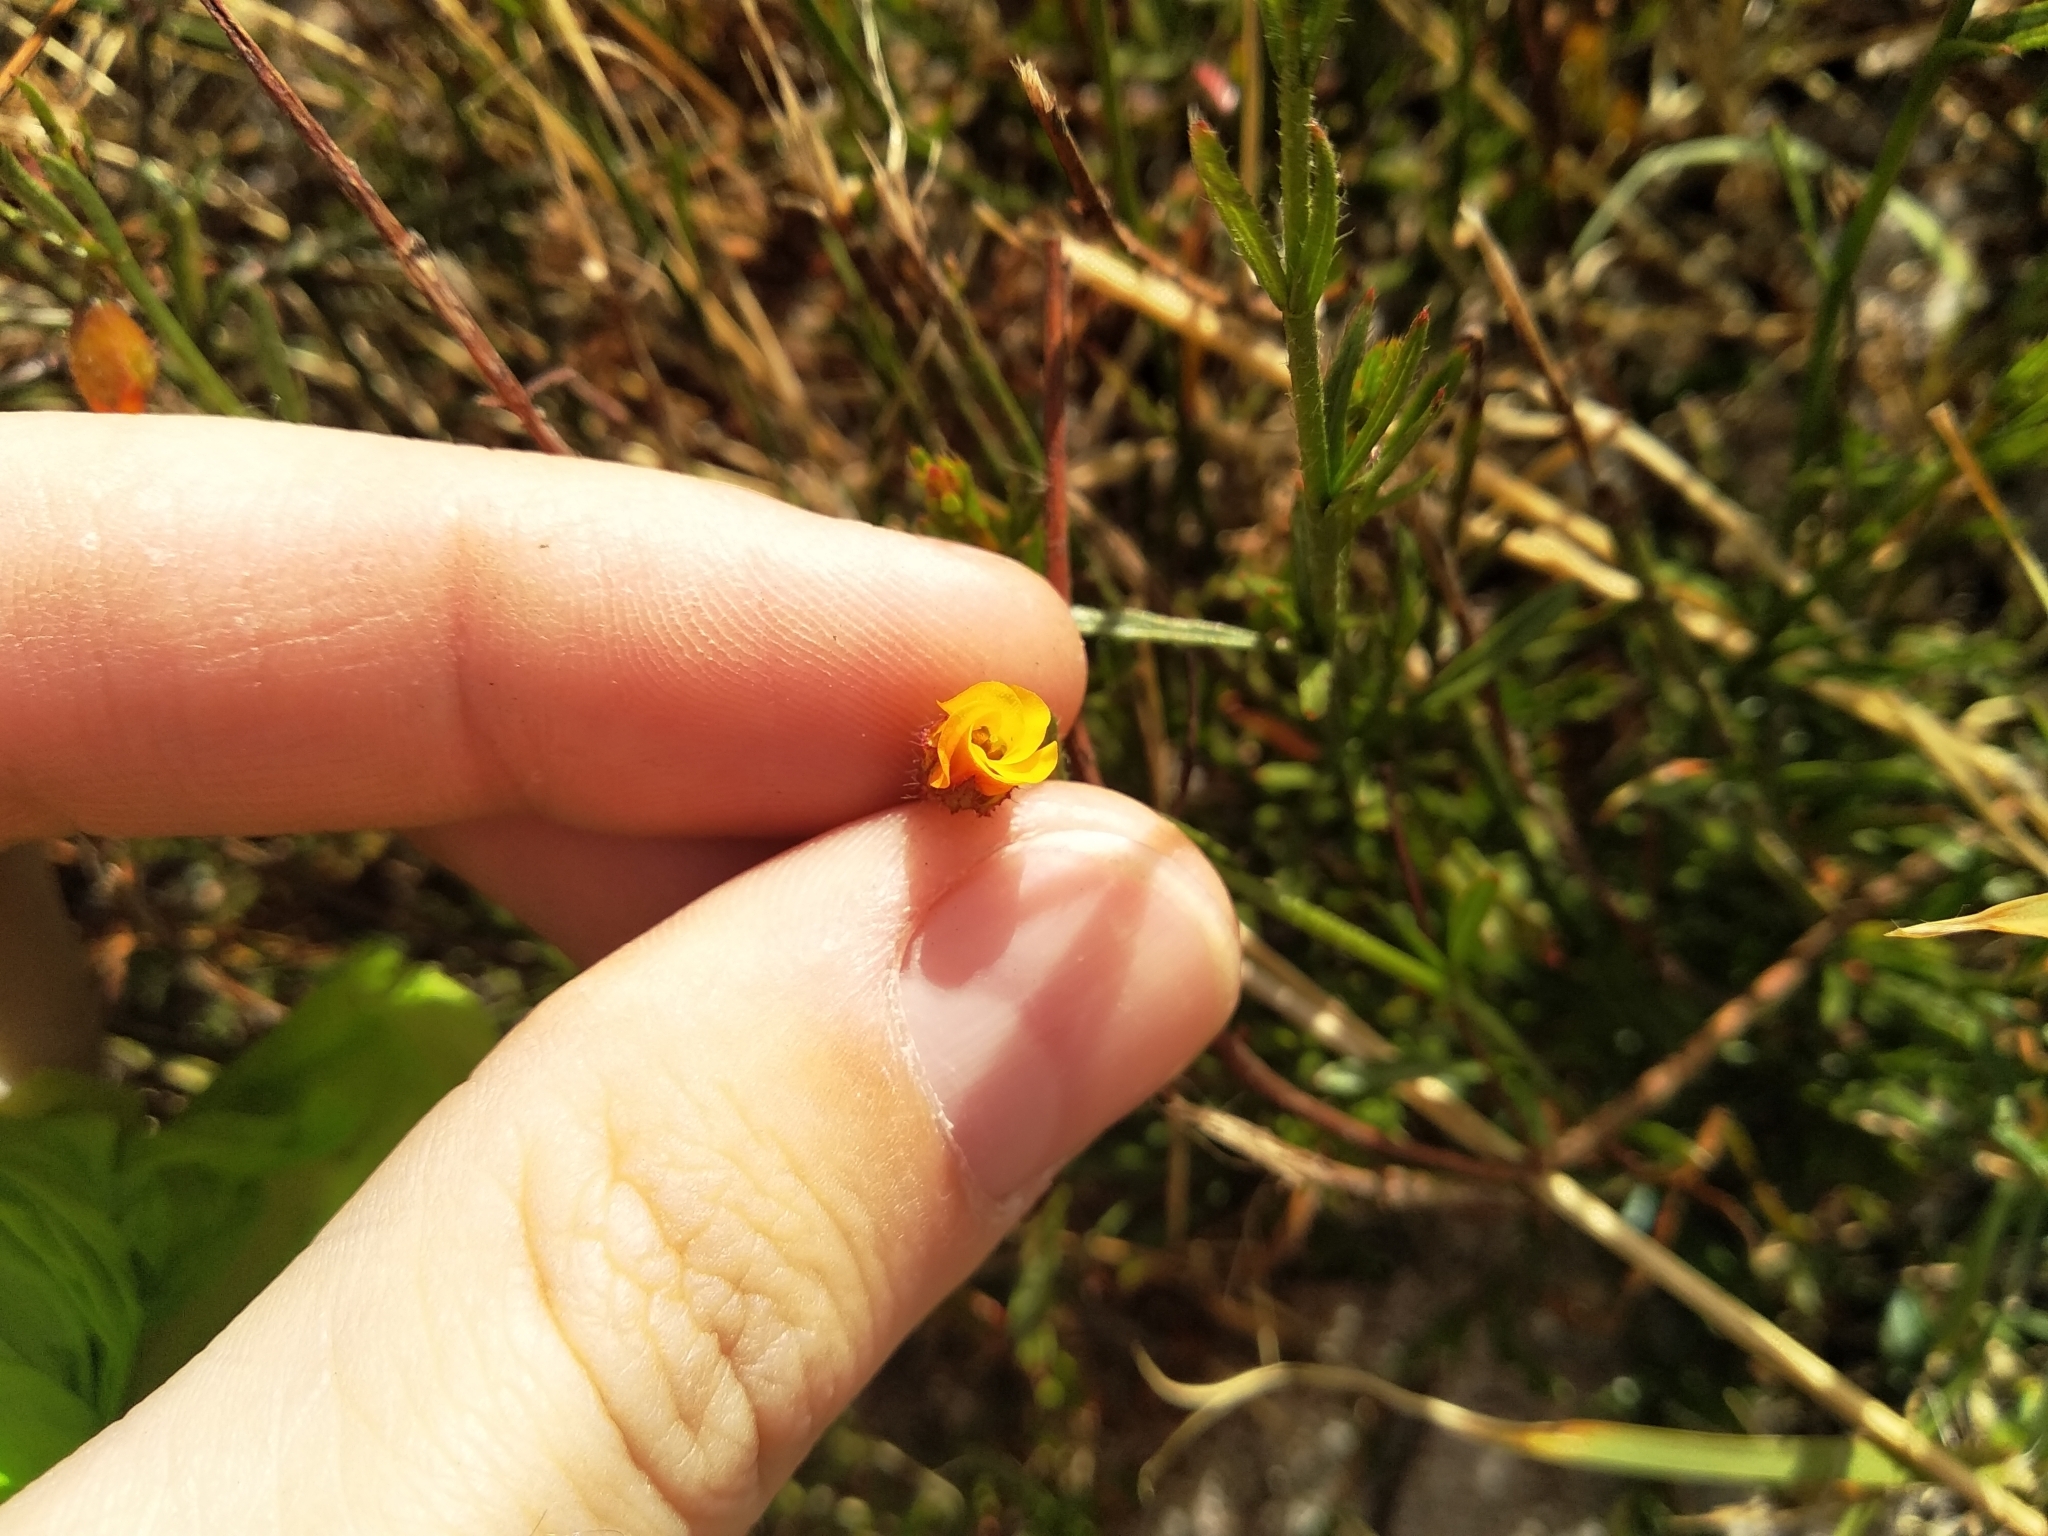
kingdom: Plantae
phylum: Tracheophyta
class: Magnoliopsida
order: Malvales
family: Malvaceae
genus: Hermannia
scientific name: Hermannia linifolia
